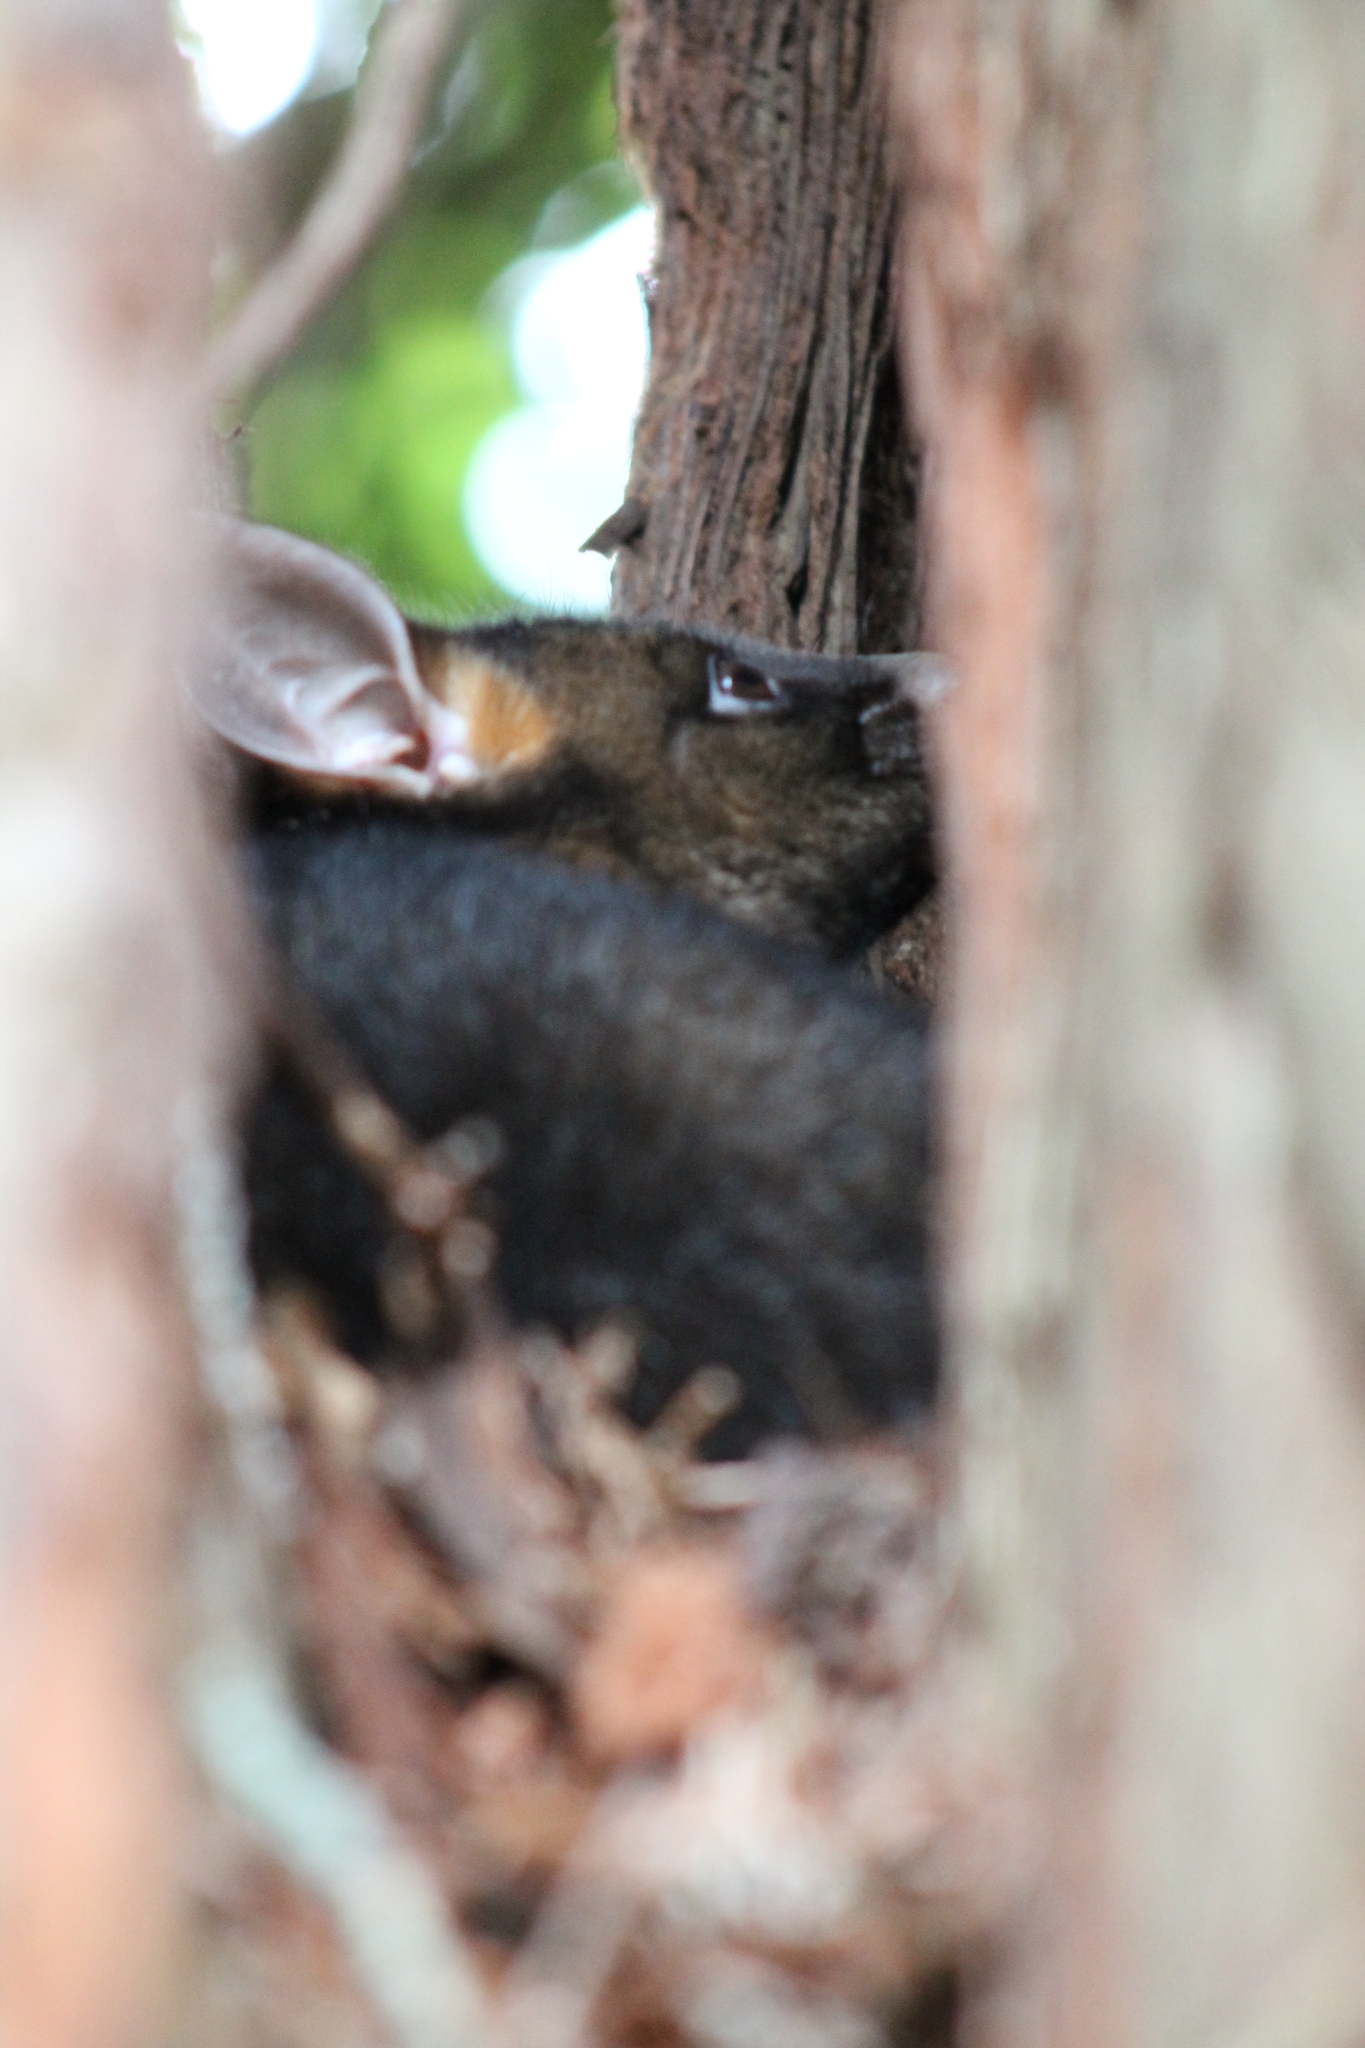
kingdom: Animalia
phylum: Chordata
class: Mammalia
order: Diprotodontia
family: Phalangeridae
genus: Trichosurus
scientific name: Trichosurus vulpecula
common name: Common brushtail
